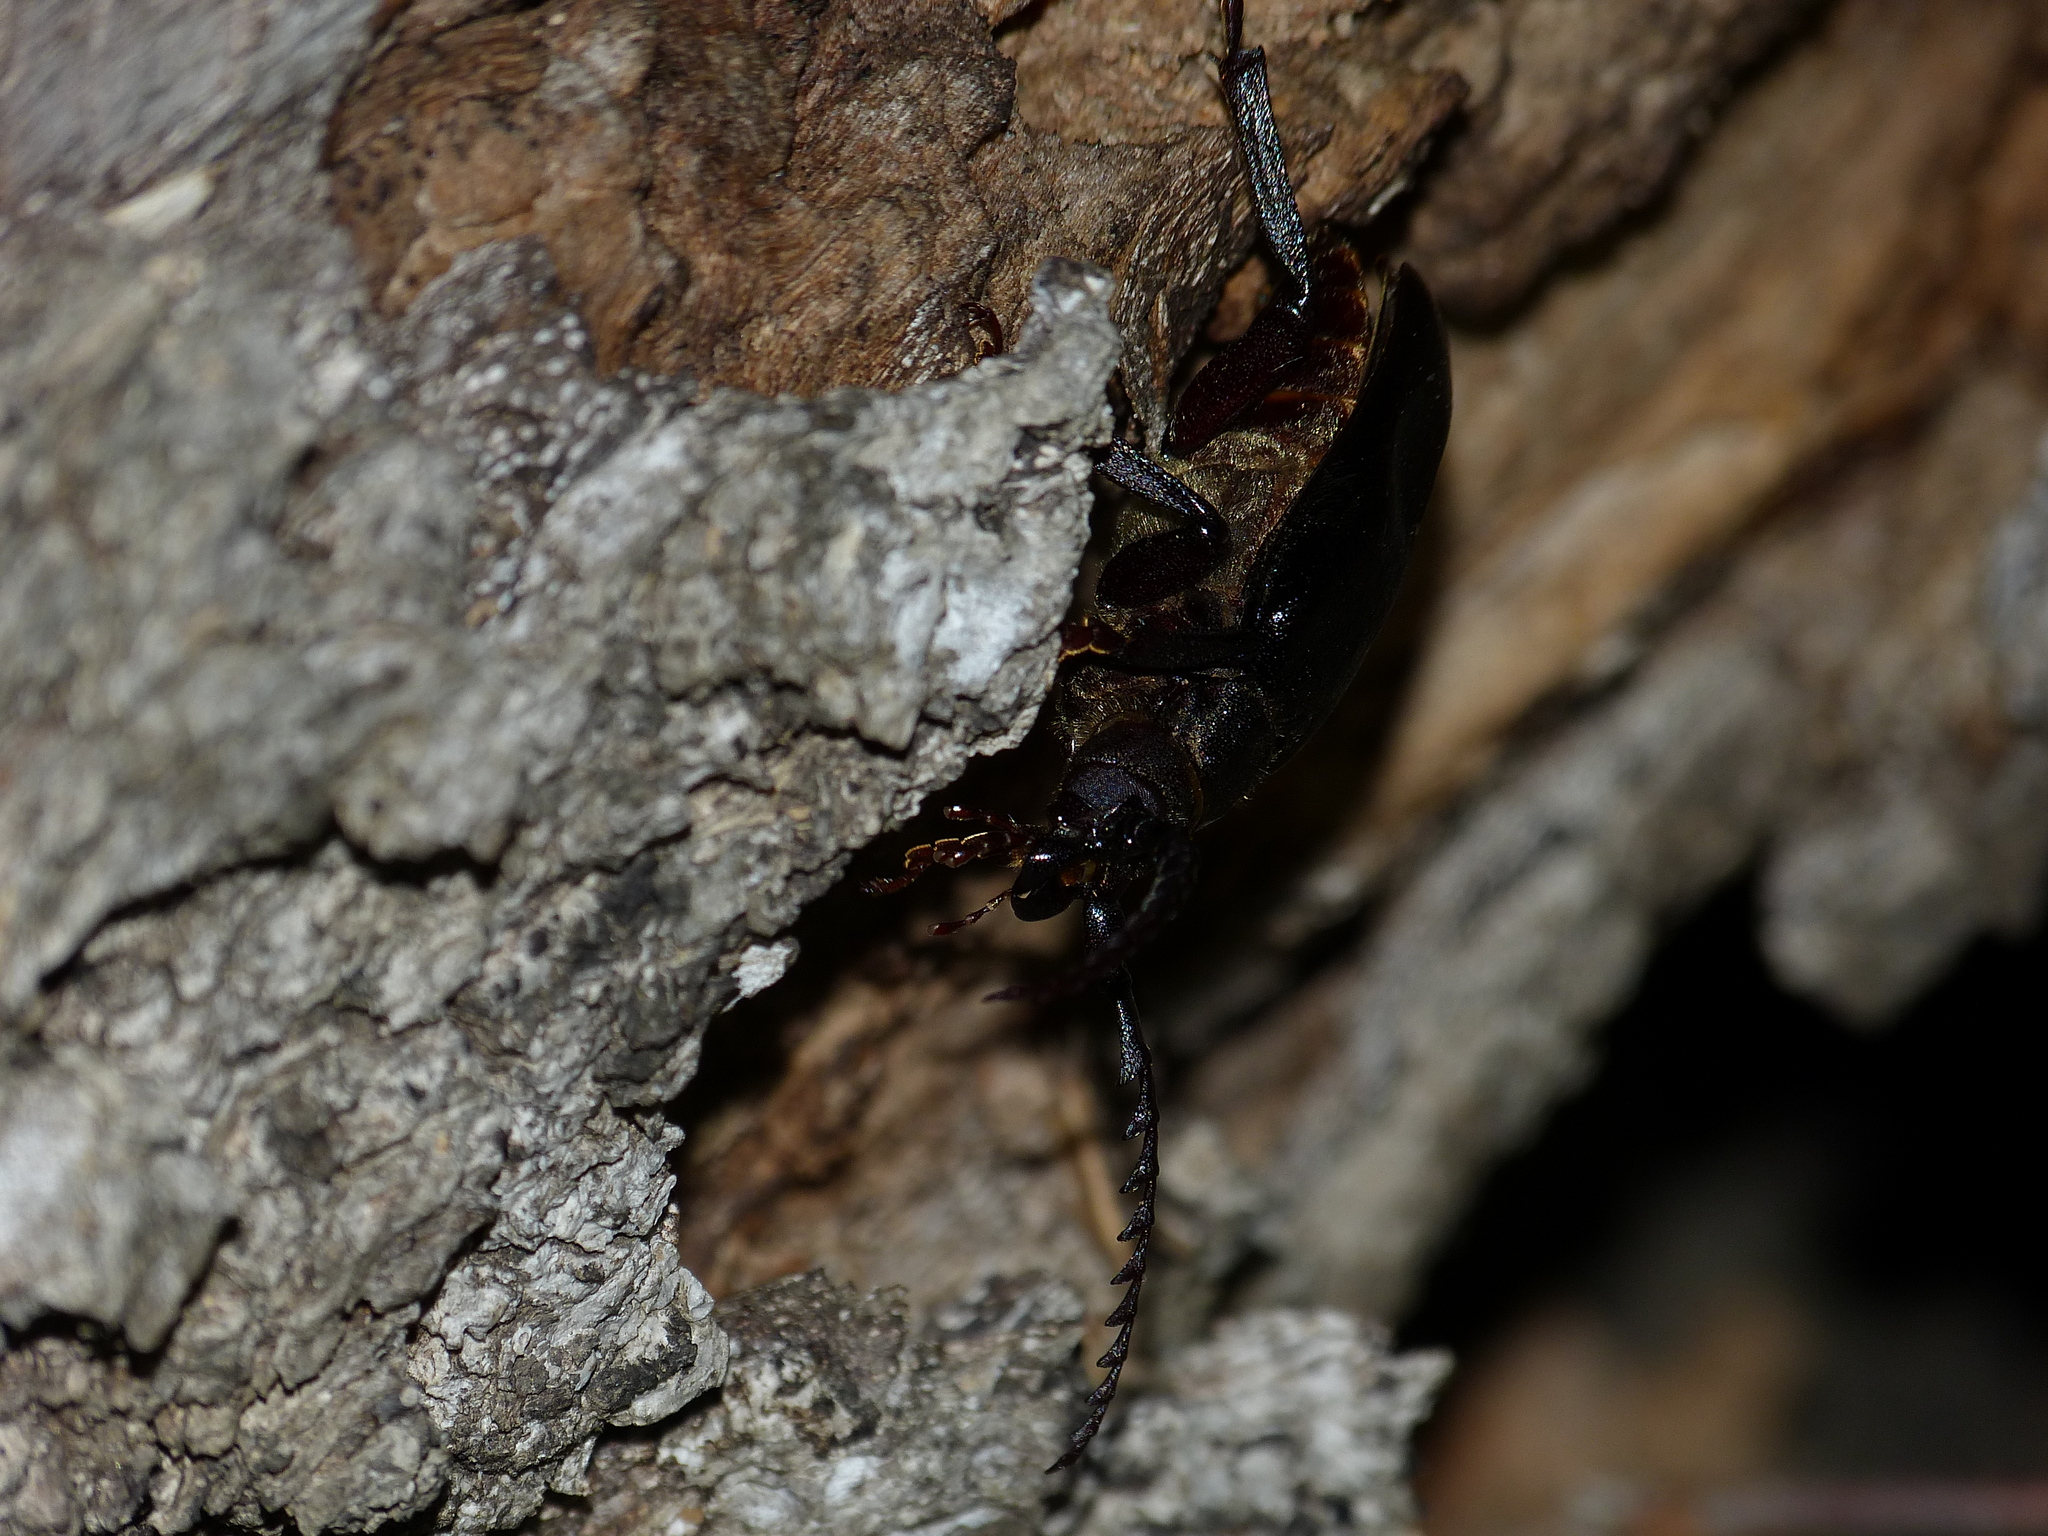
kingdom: Animalia
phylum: Arthropoda
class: Insecta
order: Coleoptera
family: Cerambycidae
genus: Prionus
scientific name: Prionus coriarius
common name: Tanner beetle
